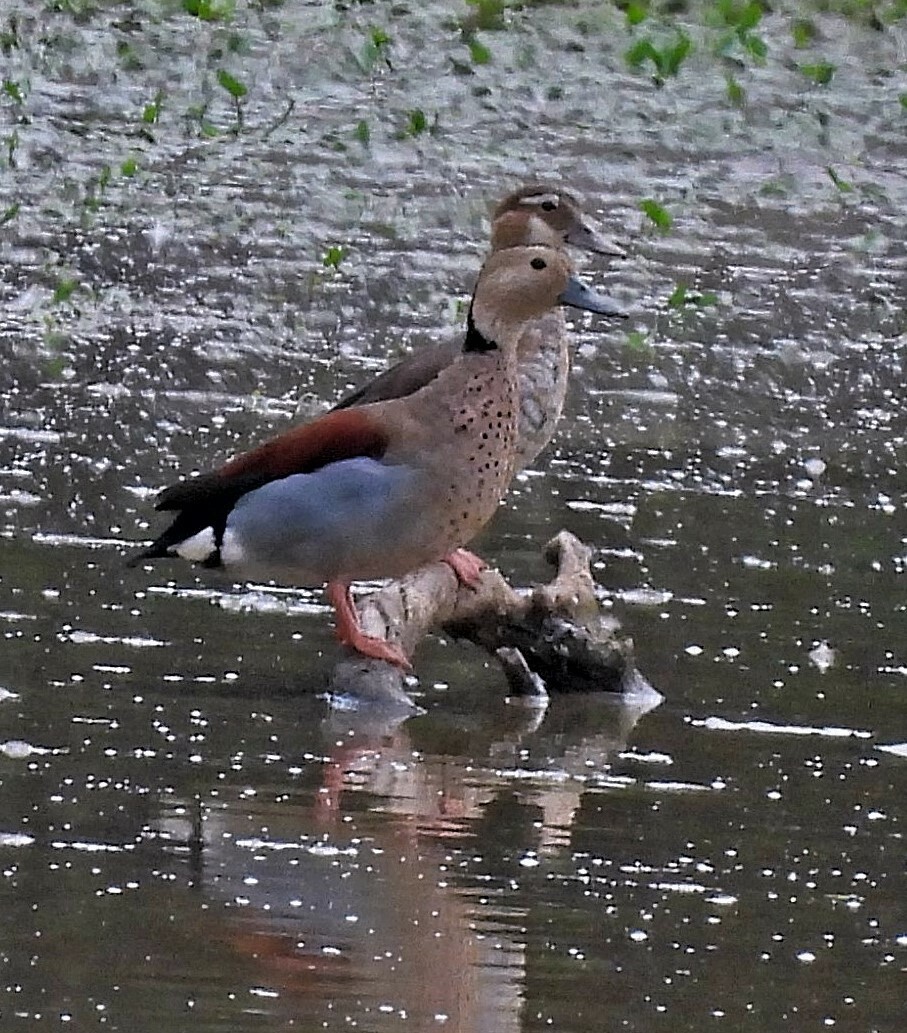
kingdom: Animalia
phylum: Chordata
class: Aves
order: Anseriformes
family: Anatidae
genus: Callonetta
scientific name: Callonetta leucophrys
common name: Ringed teal
